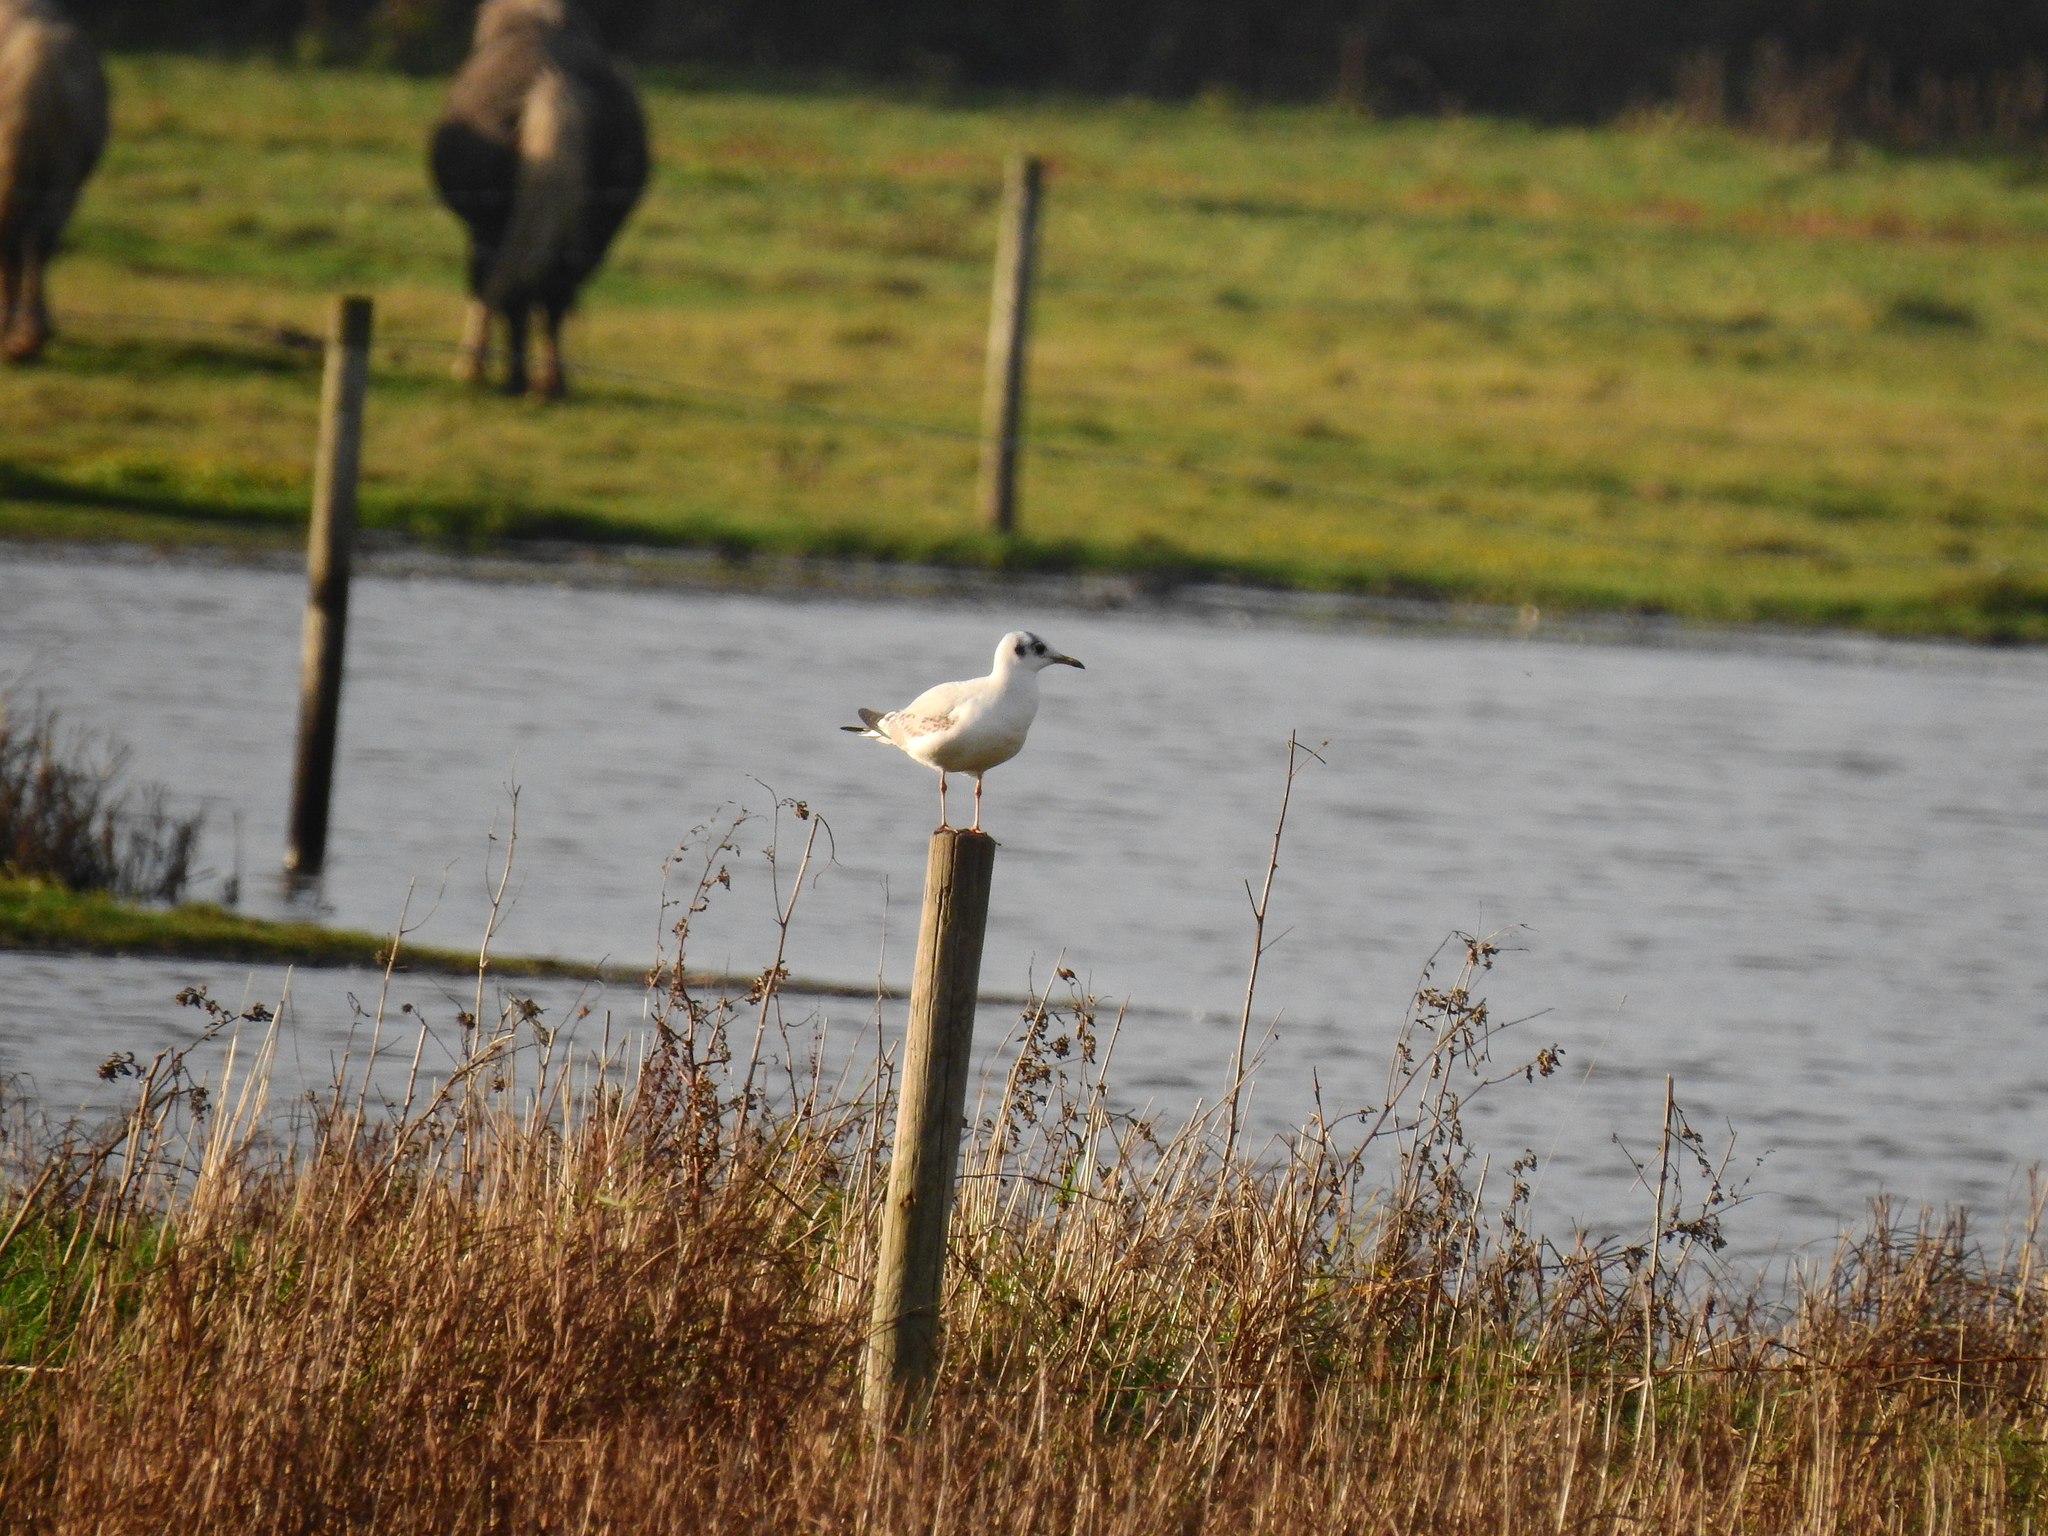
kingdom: Animalia
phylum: Chordata
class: Aves
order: Charadriiformes
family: Laridae
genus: Chroicocephalus
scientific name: Chroicocephalus ridibundus
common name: Black-headed gull
